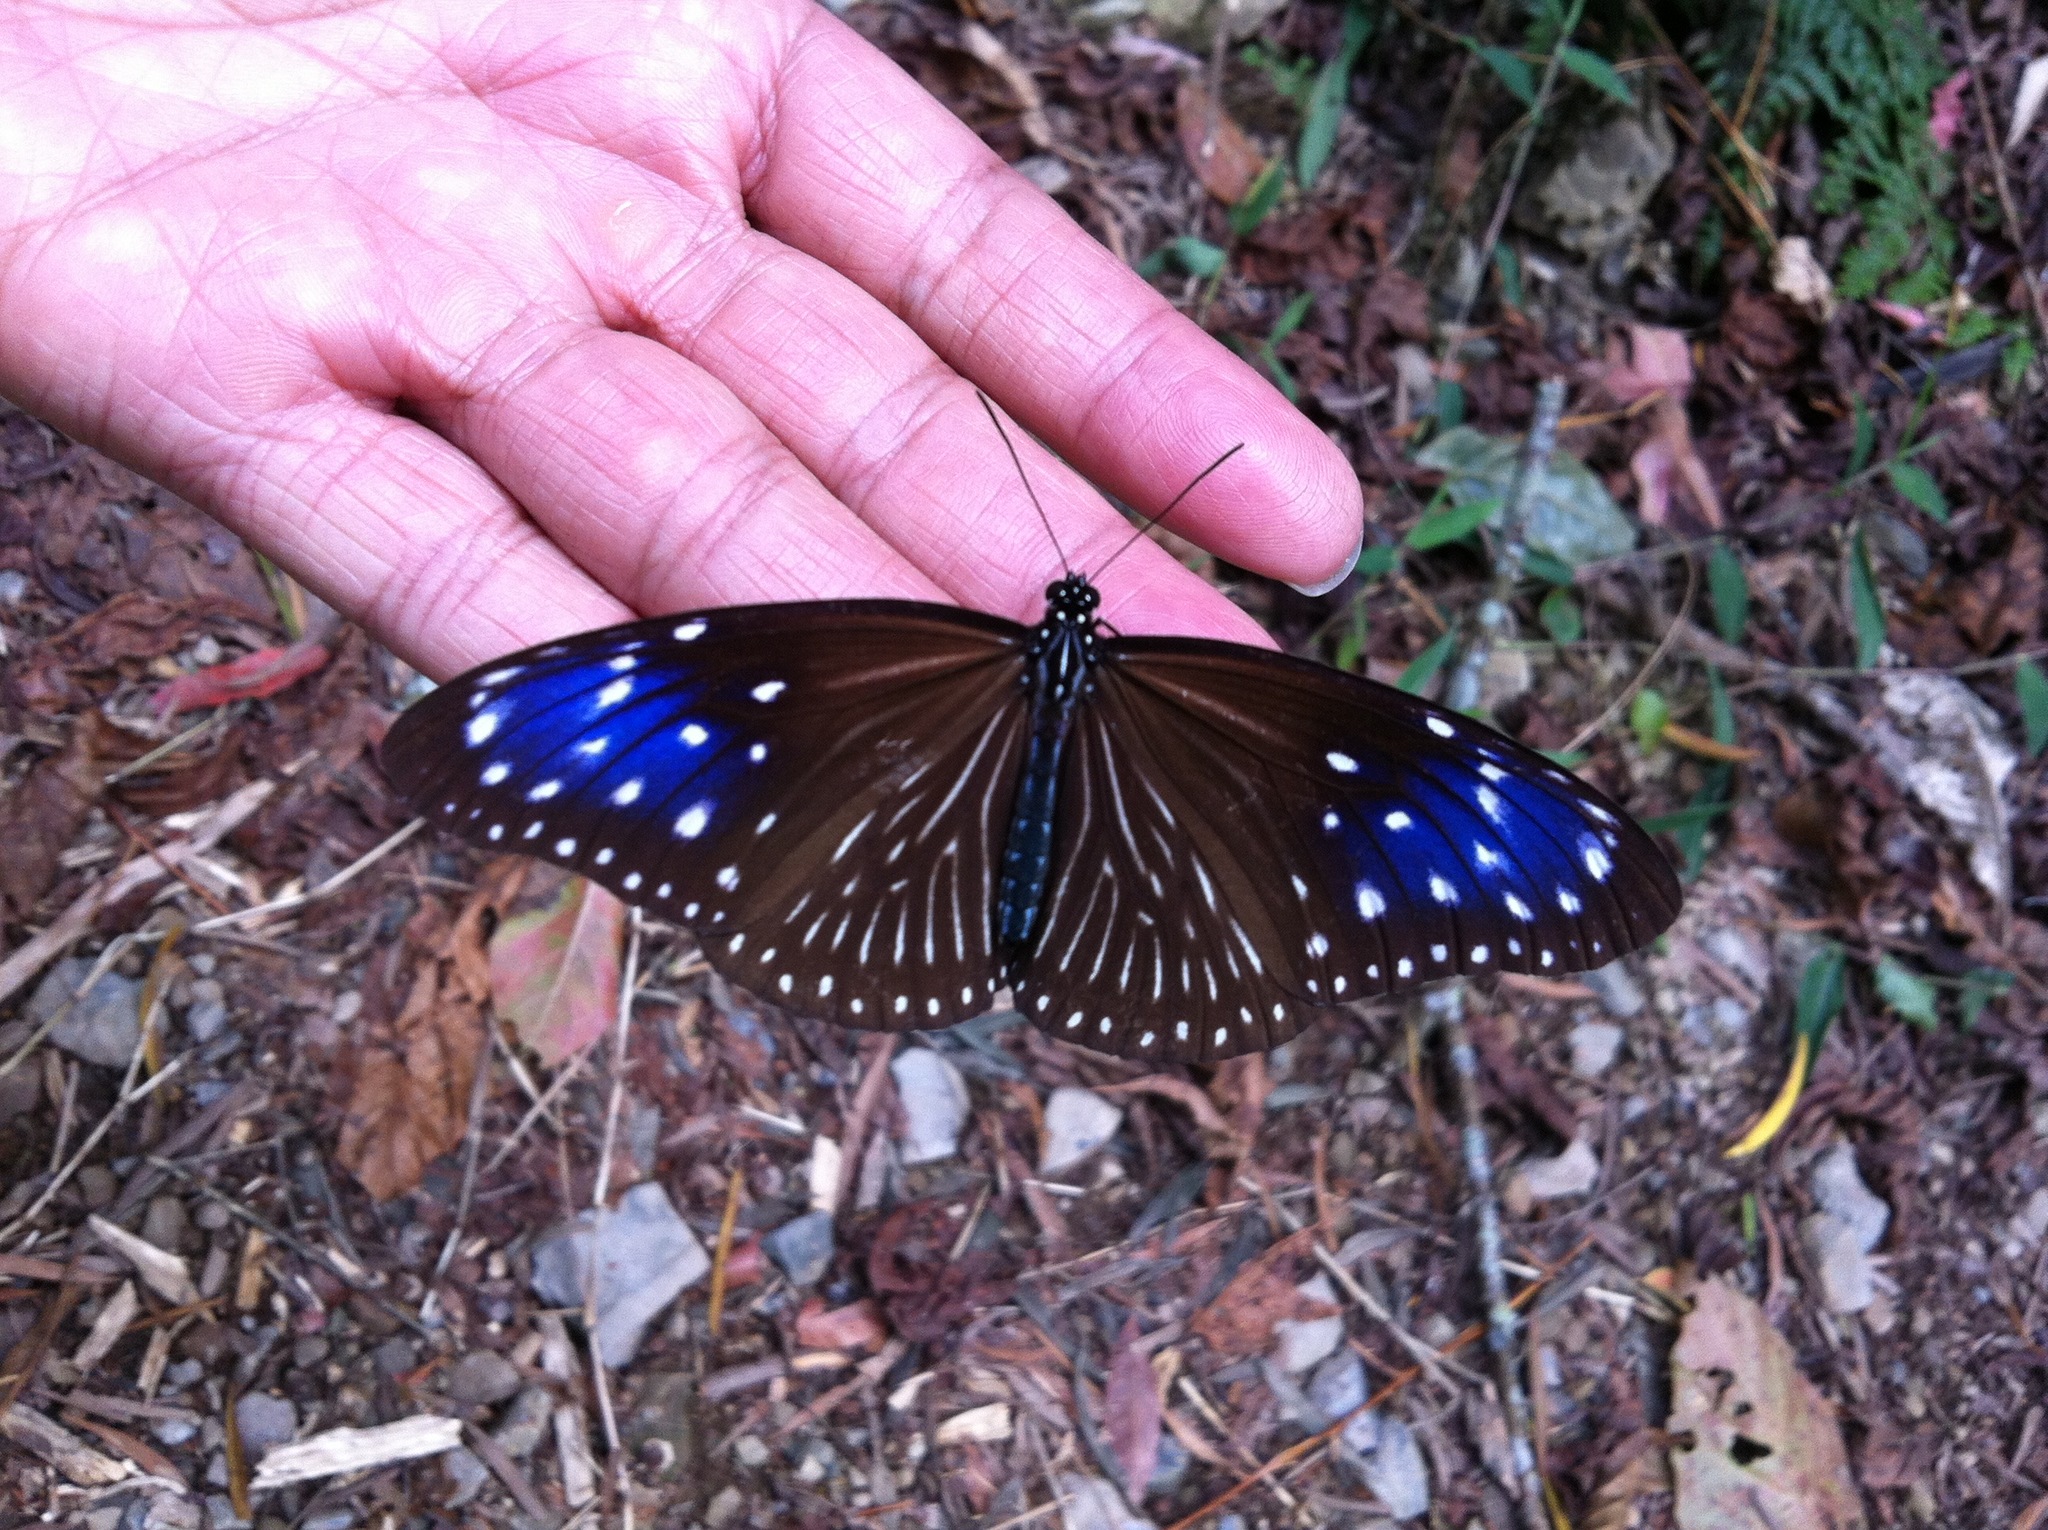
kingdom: Animalia
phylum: Arthropoda
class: Insecta
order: Lepidoptera
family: Nymphalidae
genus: Euploea
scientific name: Euploea mulciber
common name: Striped blue crow butterfly
